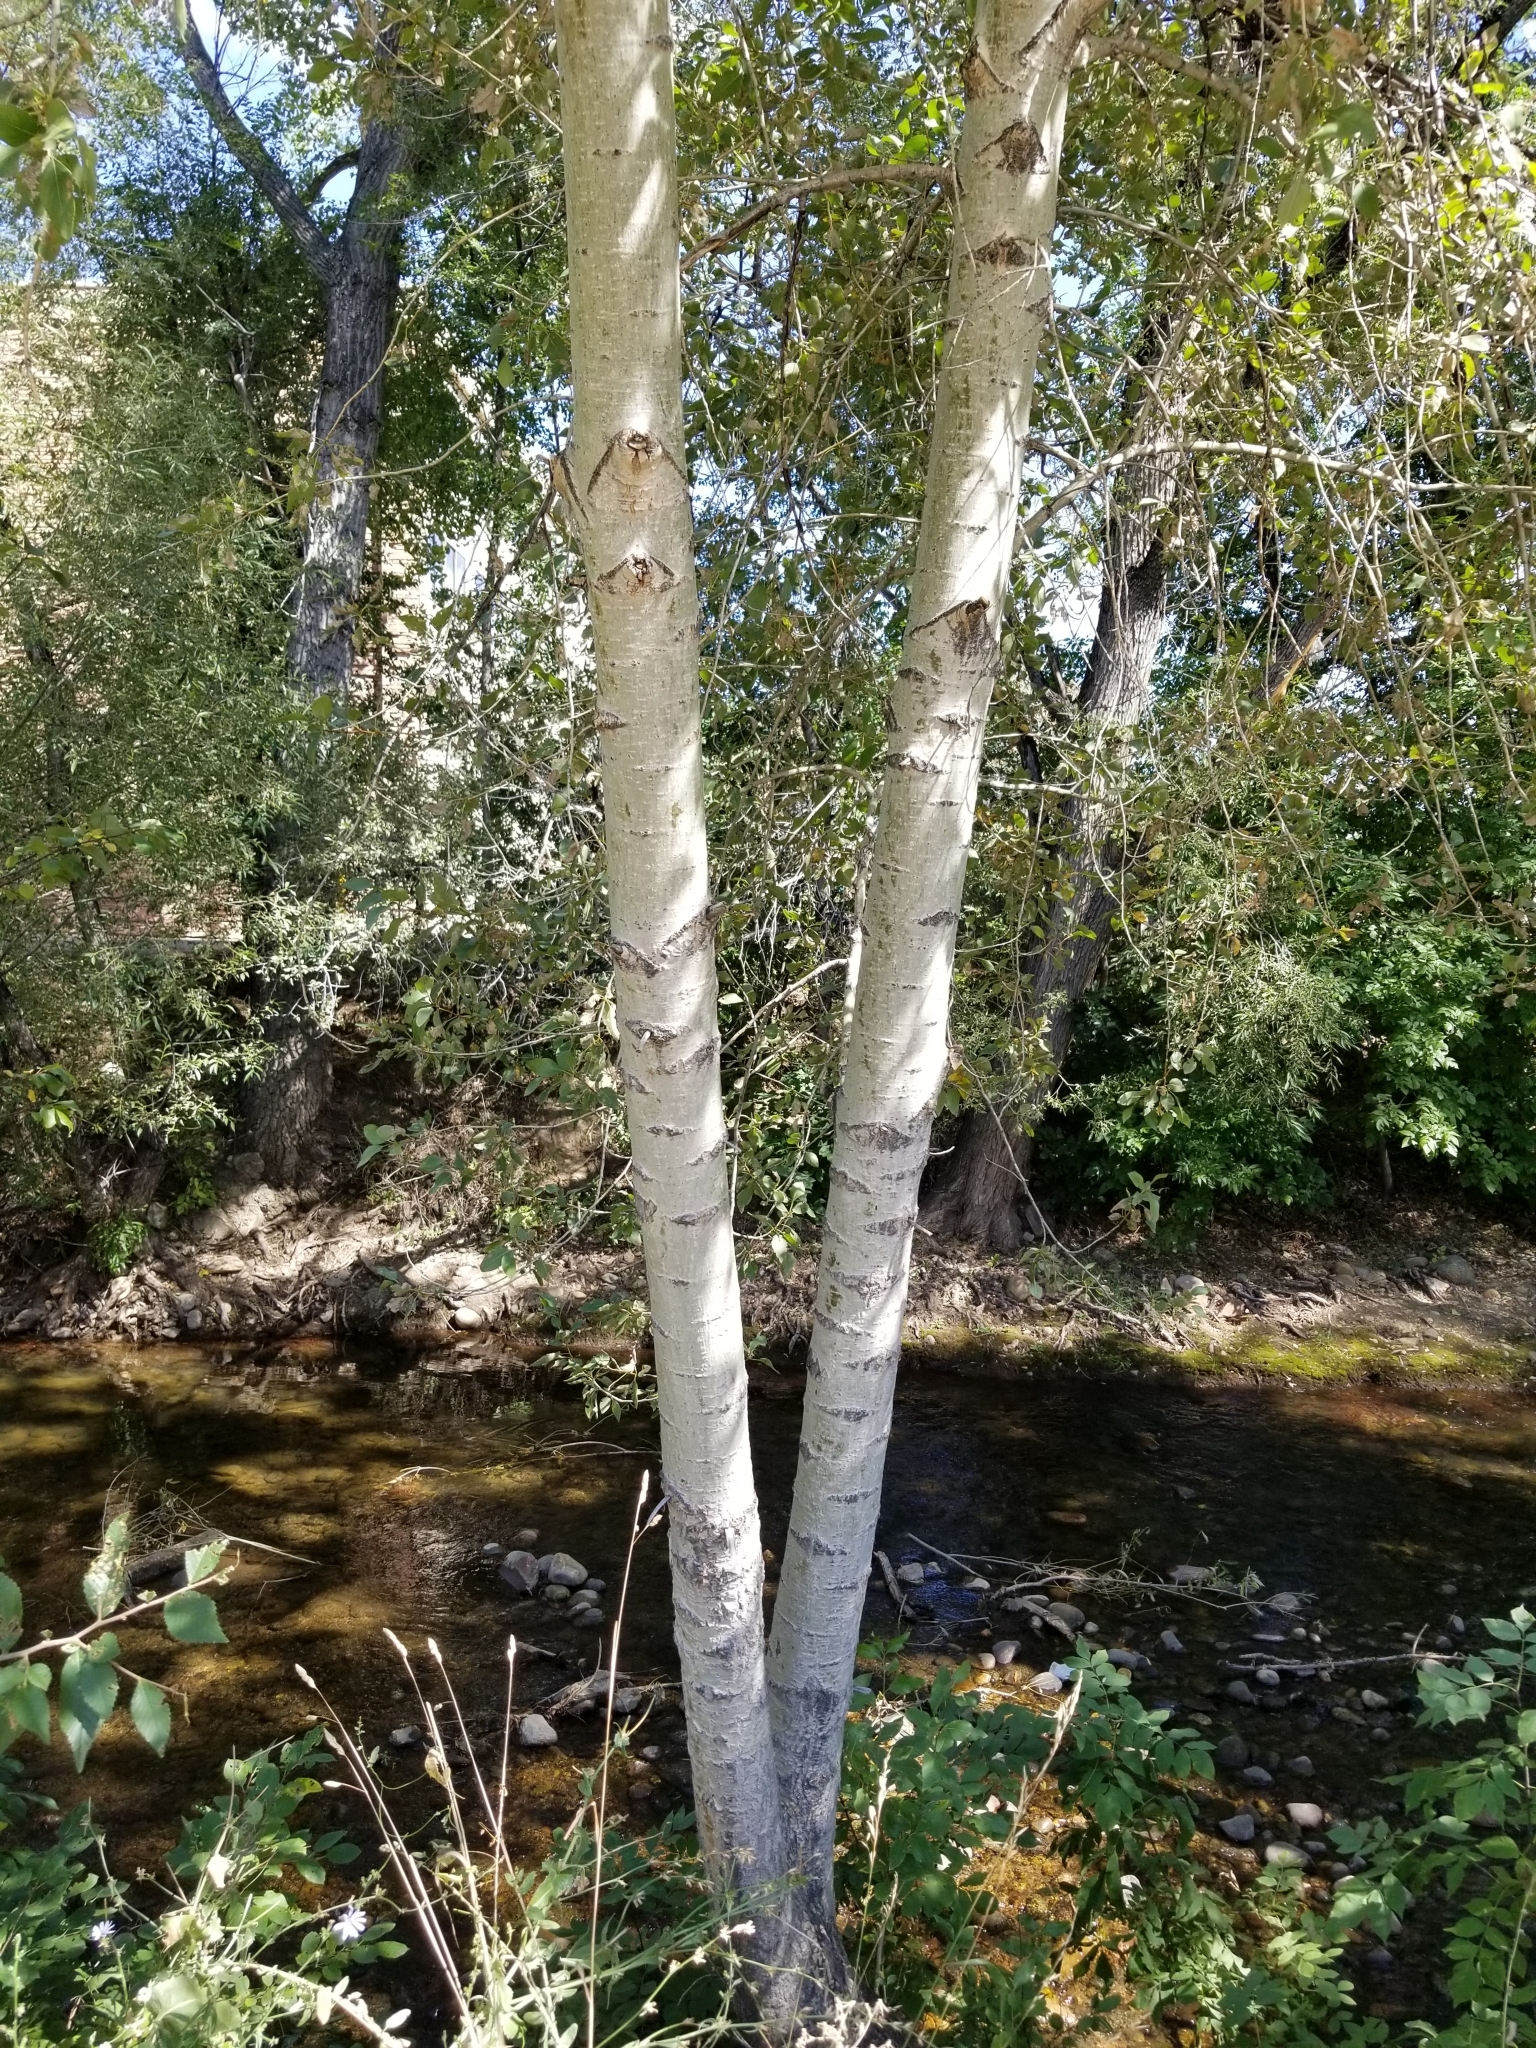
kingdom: Plantae
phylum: Tracheophyta
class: Magnoliopsida
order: Malpighiales
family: Salicaceae
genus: Populus
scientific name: Populus tremuloides
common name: Quaking aspen
